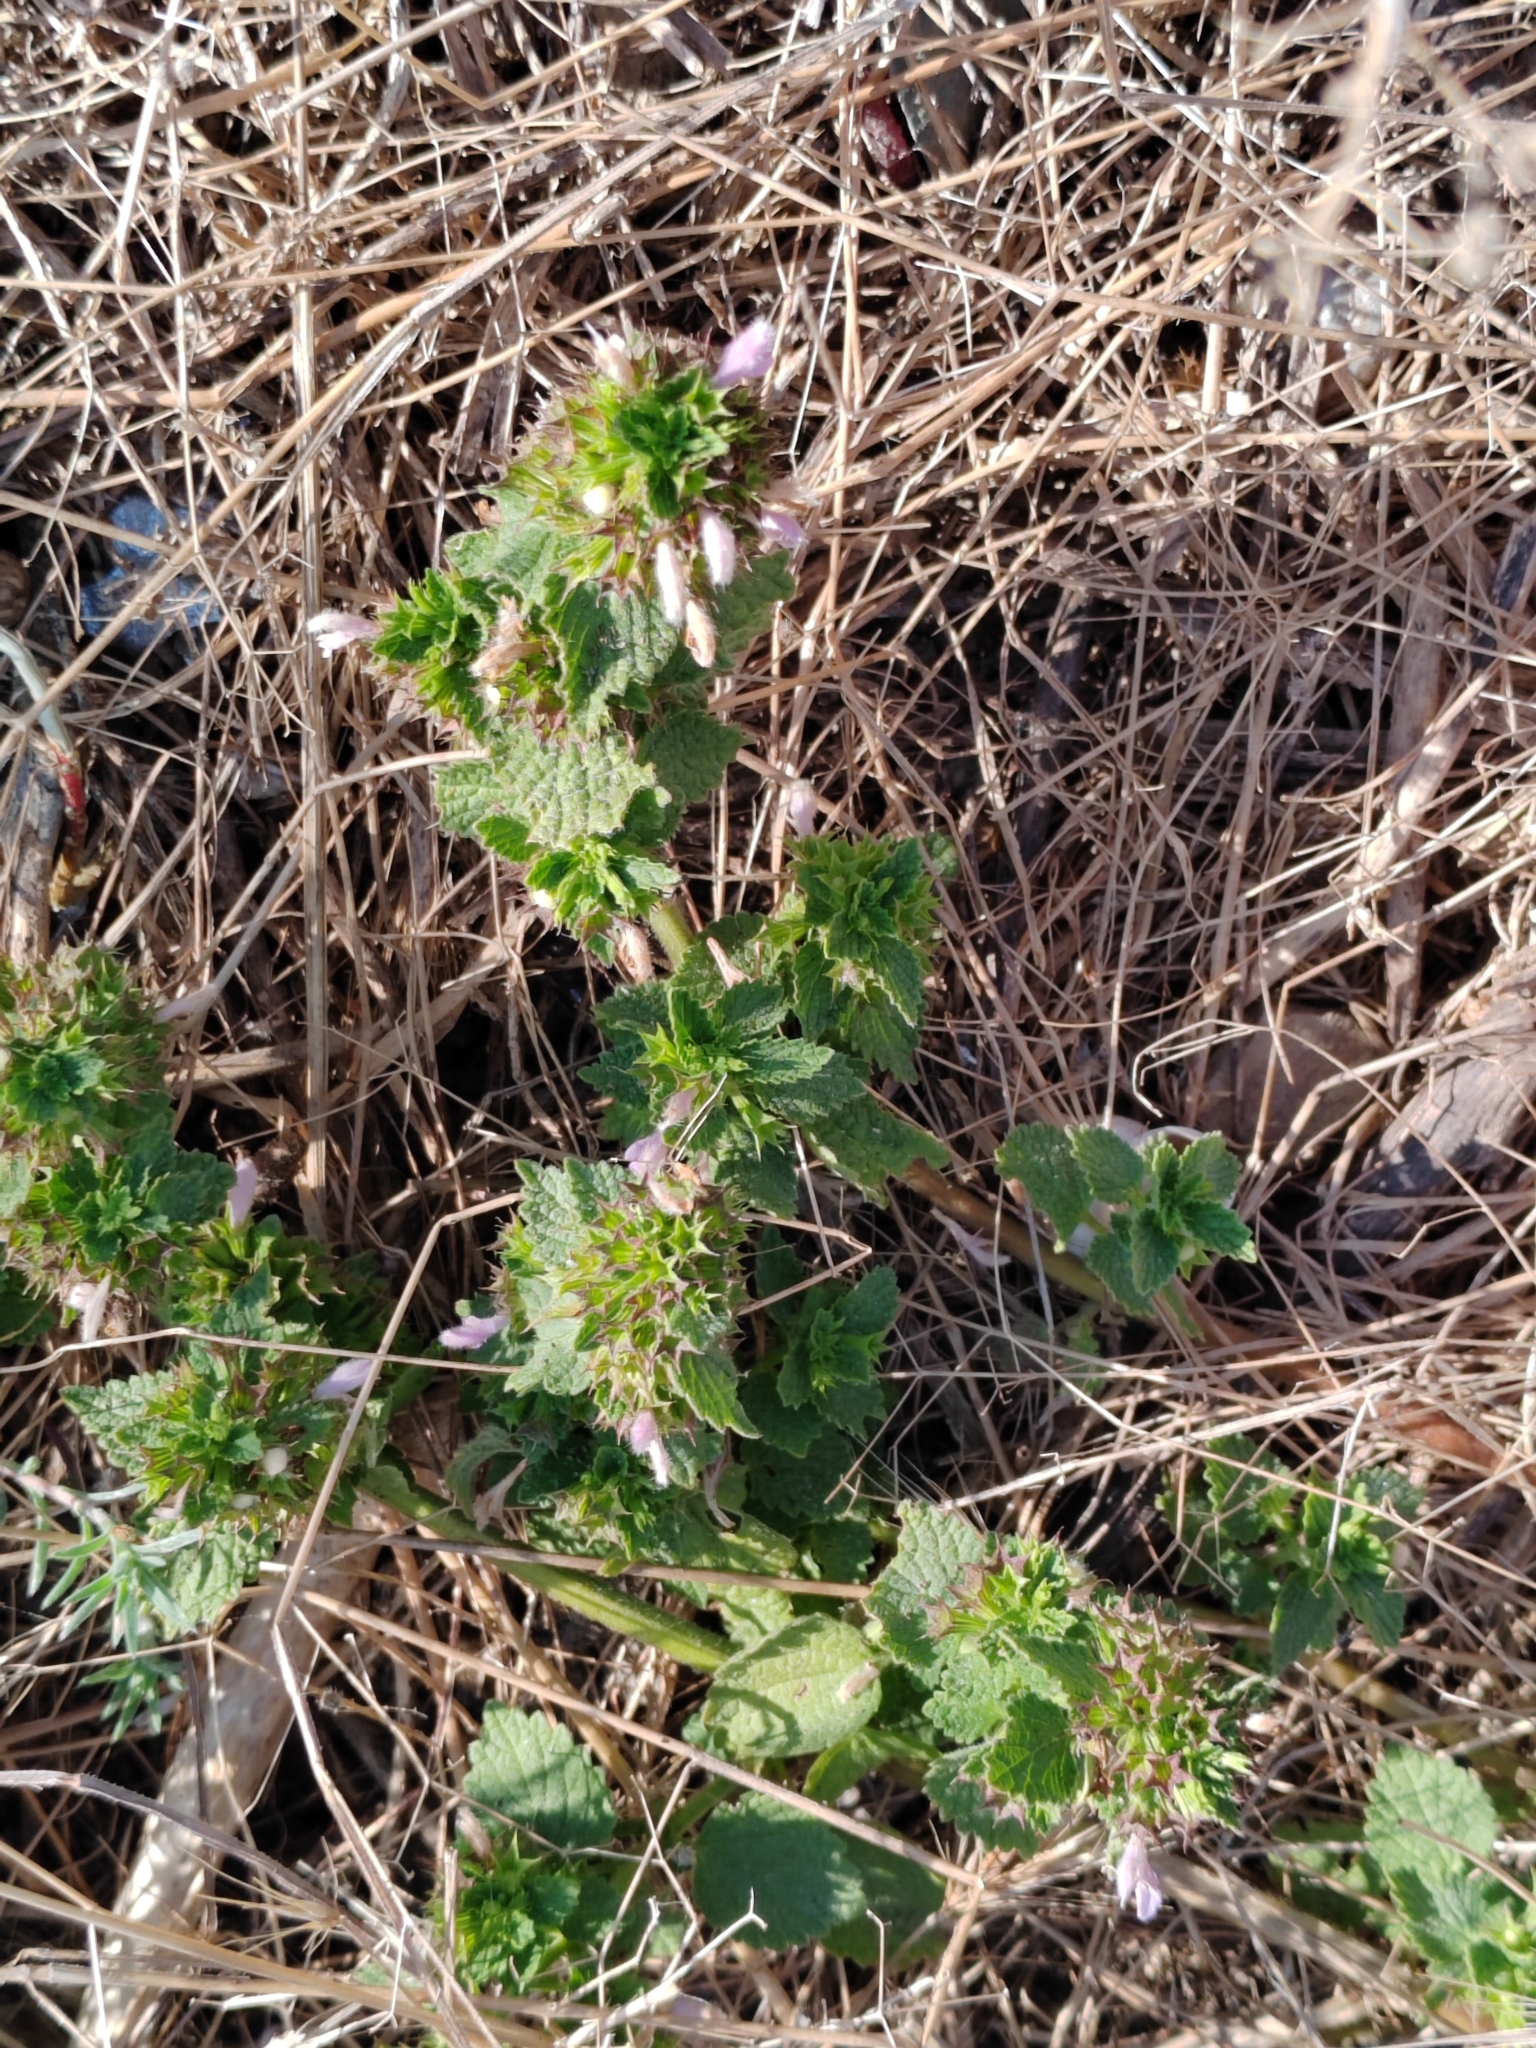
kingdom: Plantae
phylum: Tracheophyta
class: Magnoliopsida
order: Lamiales
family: Lamiaceae
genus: Ballota
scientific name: Ballota nigra
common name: Black horehound
